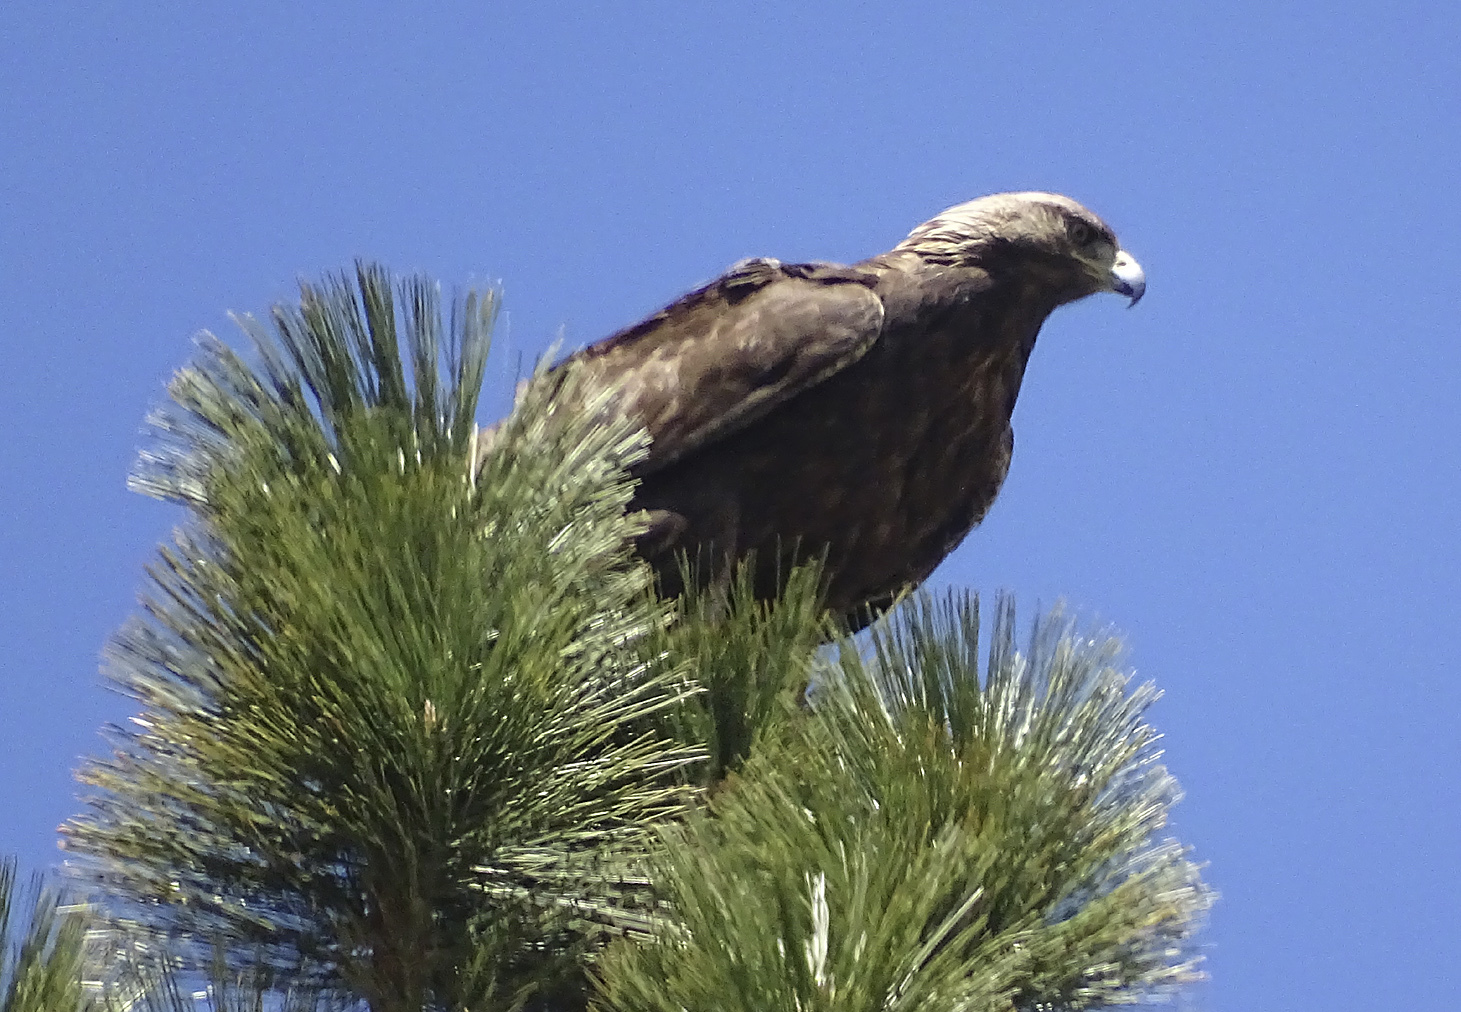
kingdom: Animalia
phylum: Chordata
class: Aves
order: Accipitriformes
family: Accipitridae
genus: Aquila
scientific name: Aquila chrysaetos
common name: Golden eagle
